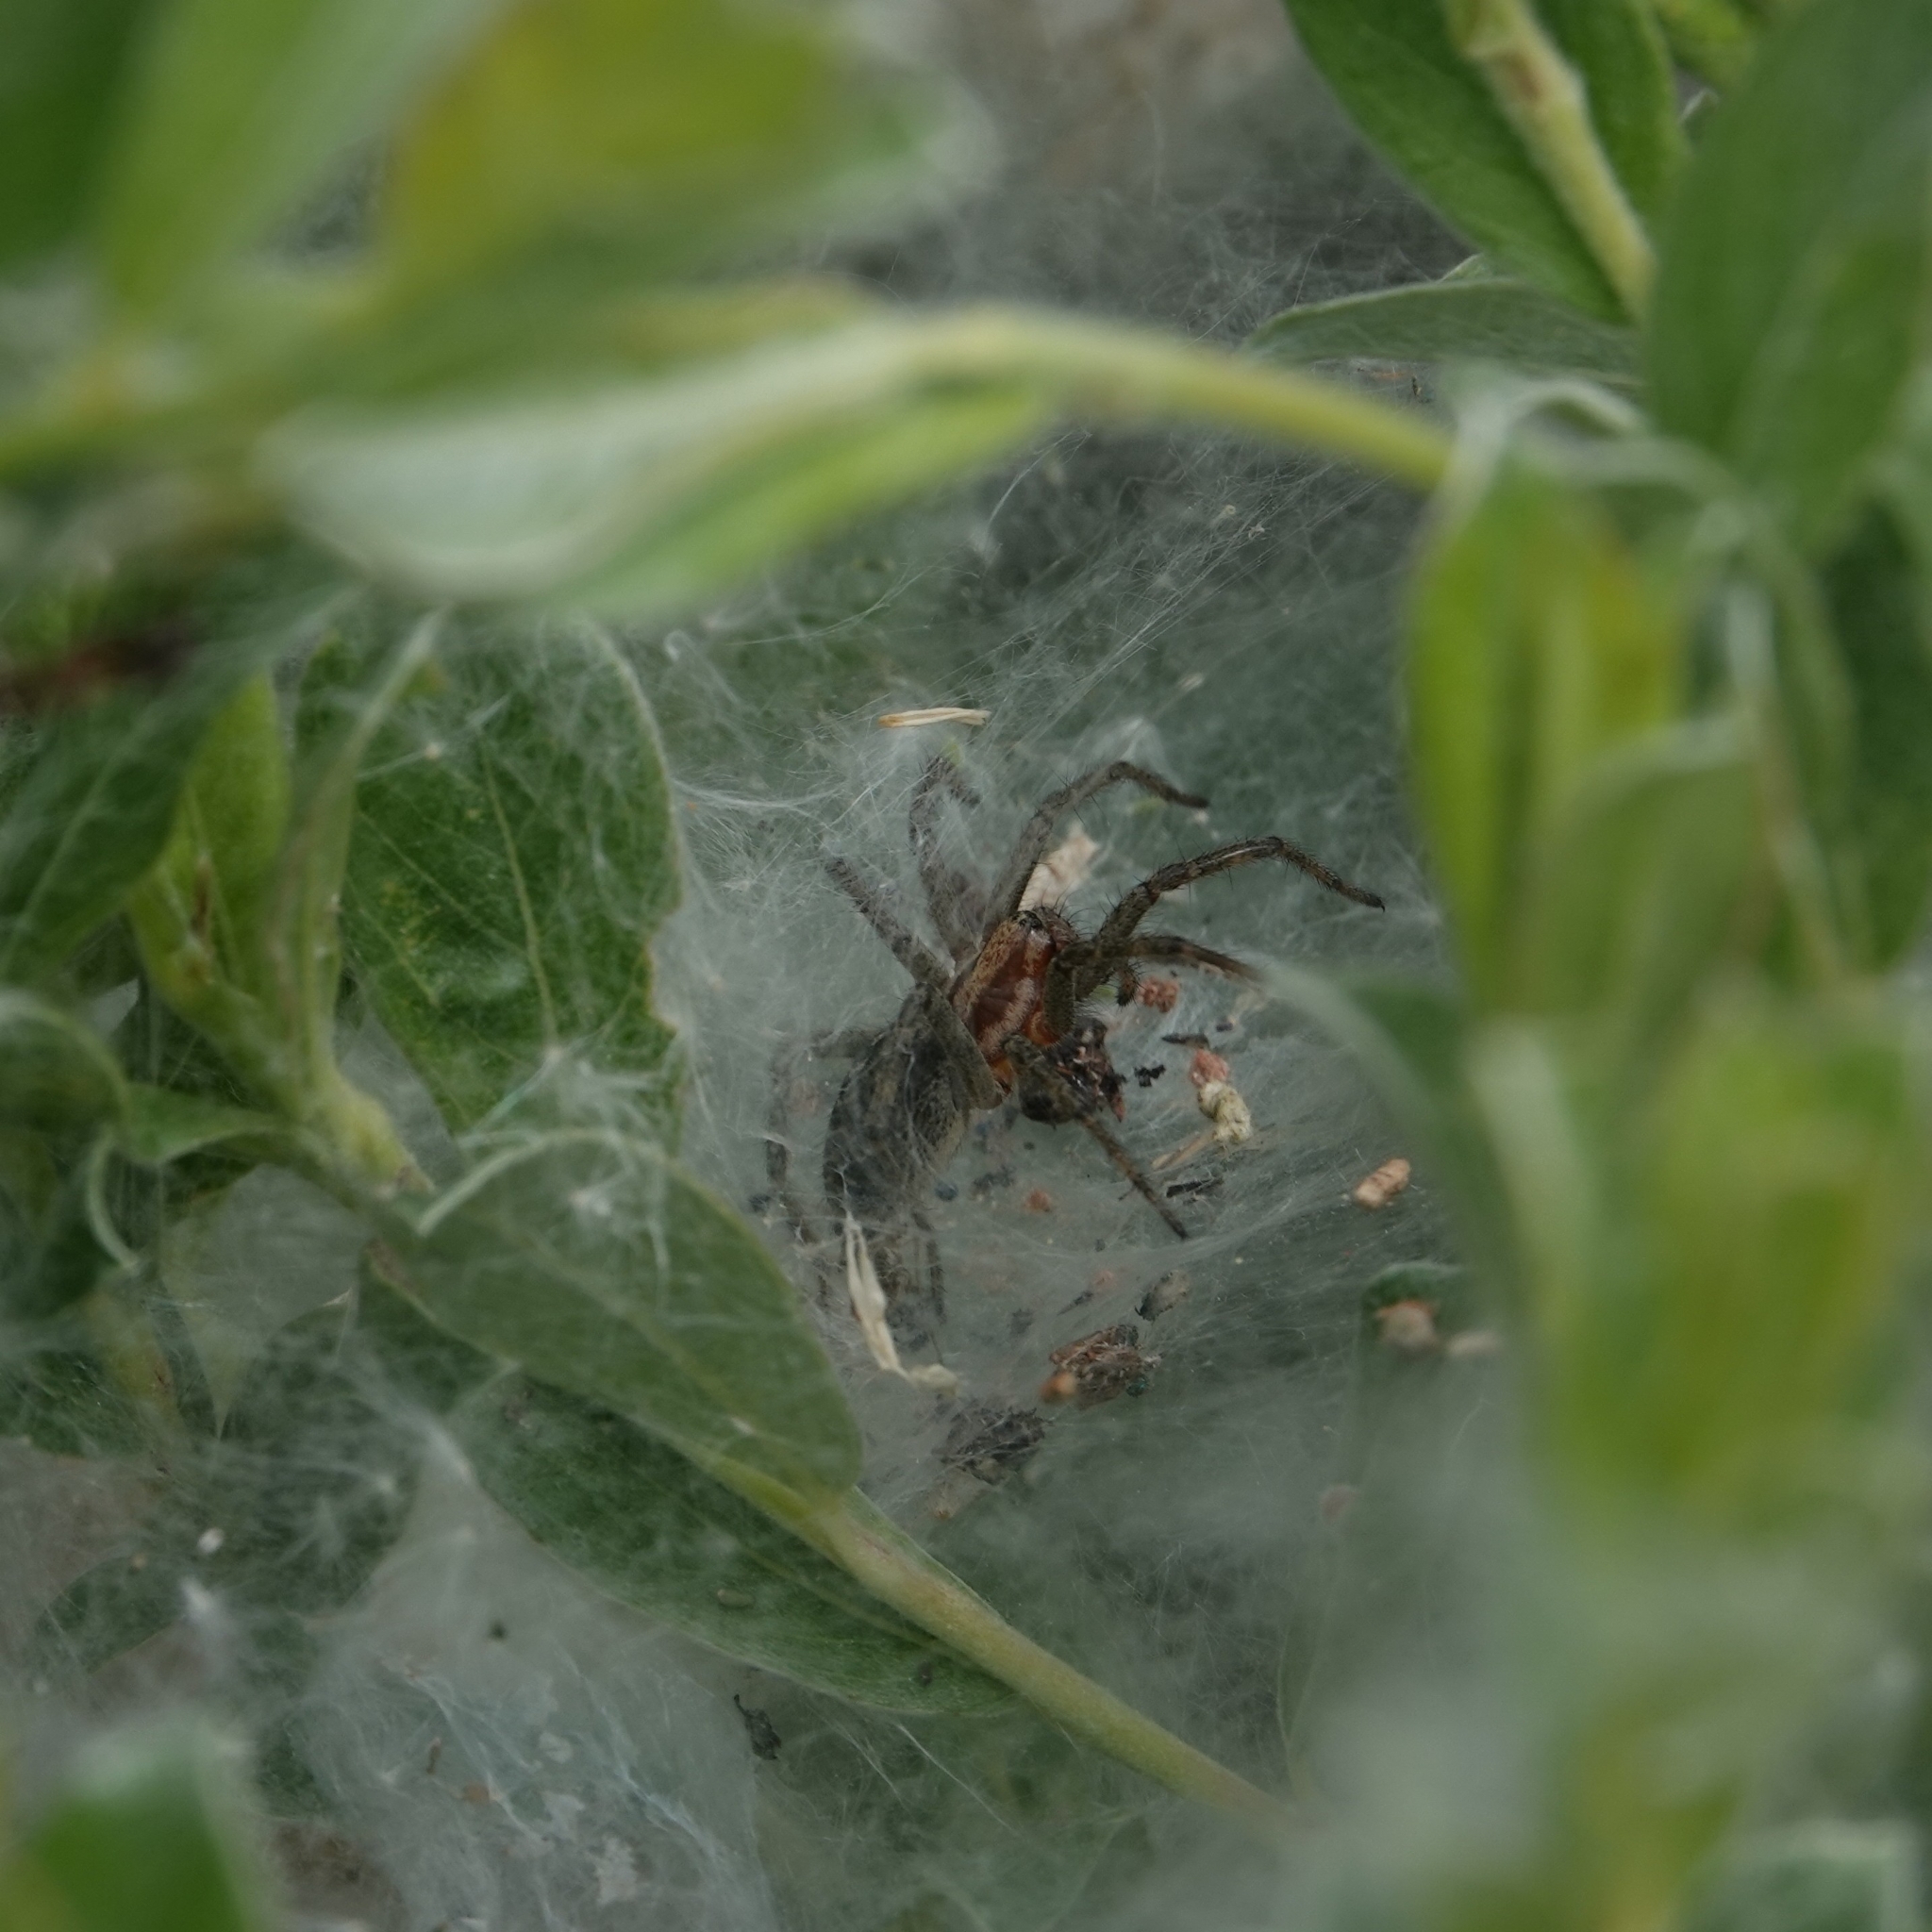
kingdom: Animalia
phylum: Arthropoda
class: Arachnida
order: Araneae
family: Agelenidae
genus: Agelena
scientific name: Agelena labyrinthica
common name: Labyrinth spider
